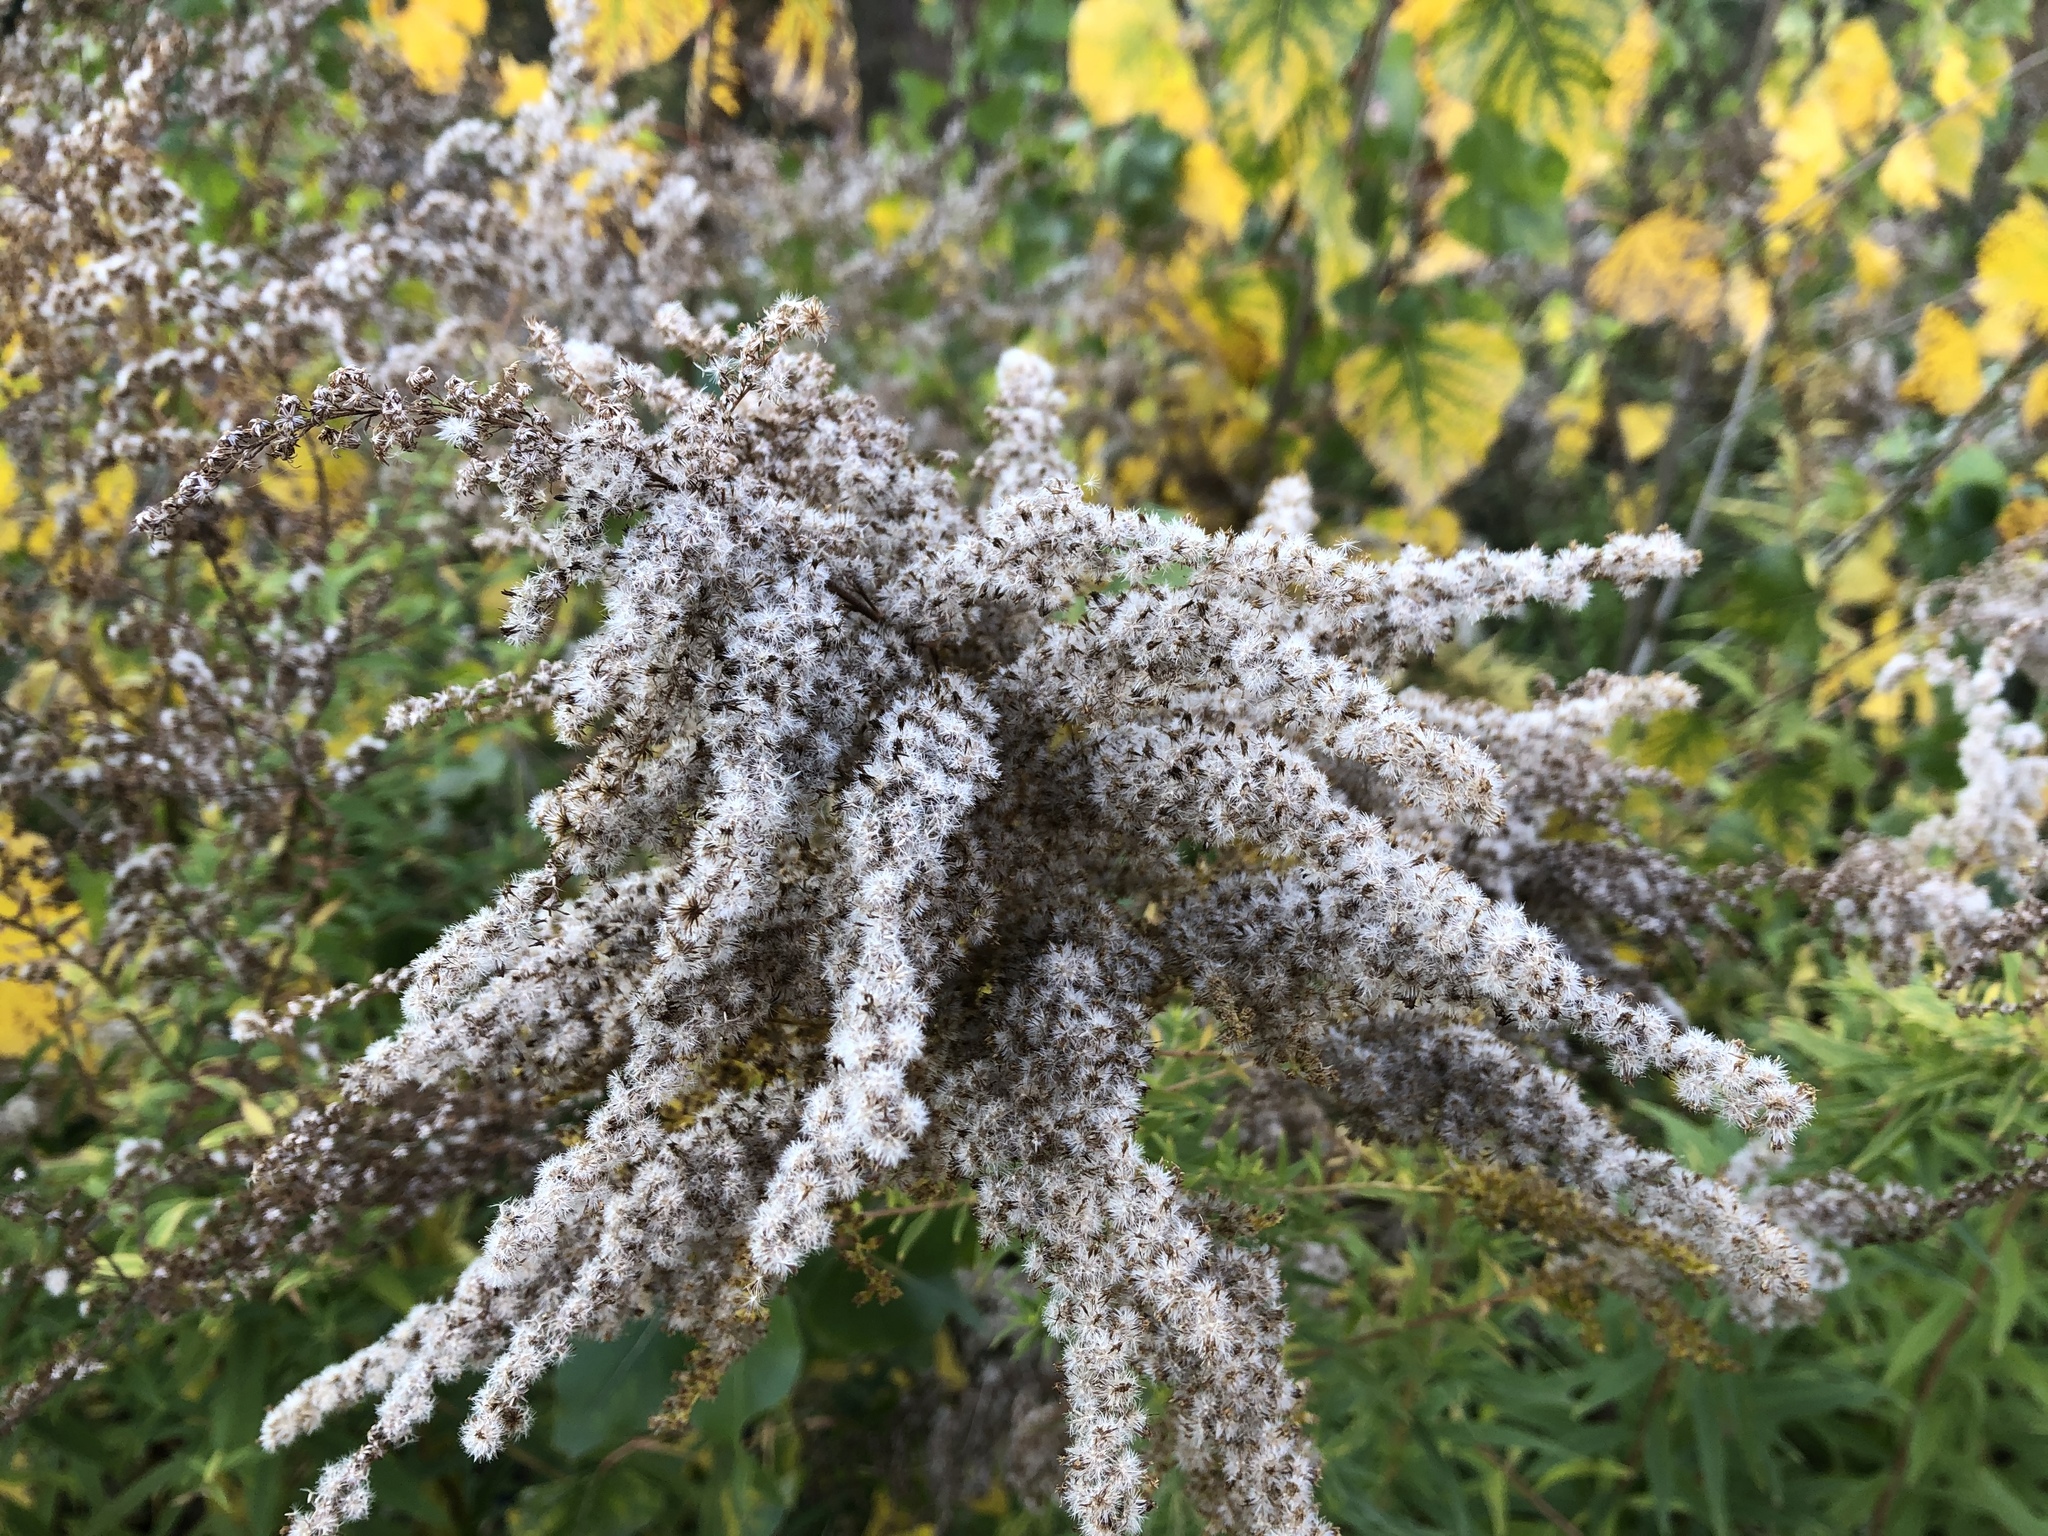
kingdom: Plantae
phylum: Tracheophyta
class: Magnoliopsida
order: Asterales
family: Asteraceae
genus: Solidago
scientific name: Solidago canadensis
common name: Canada goldenrod
